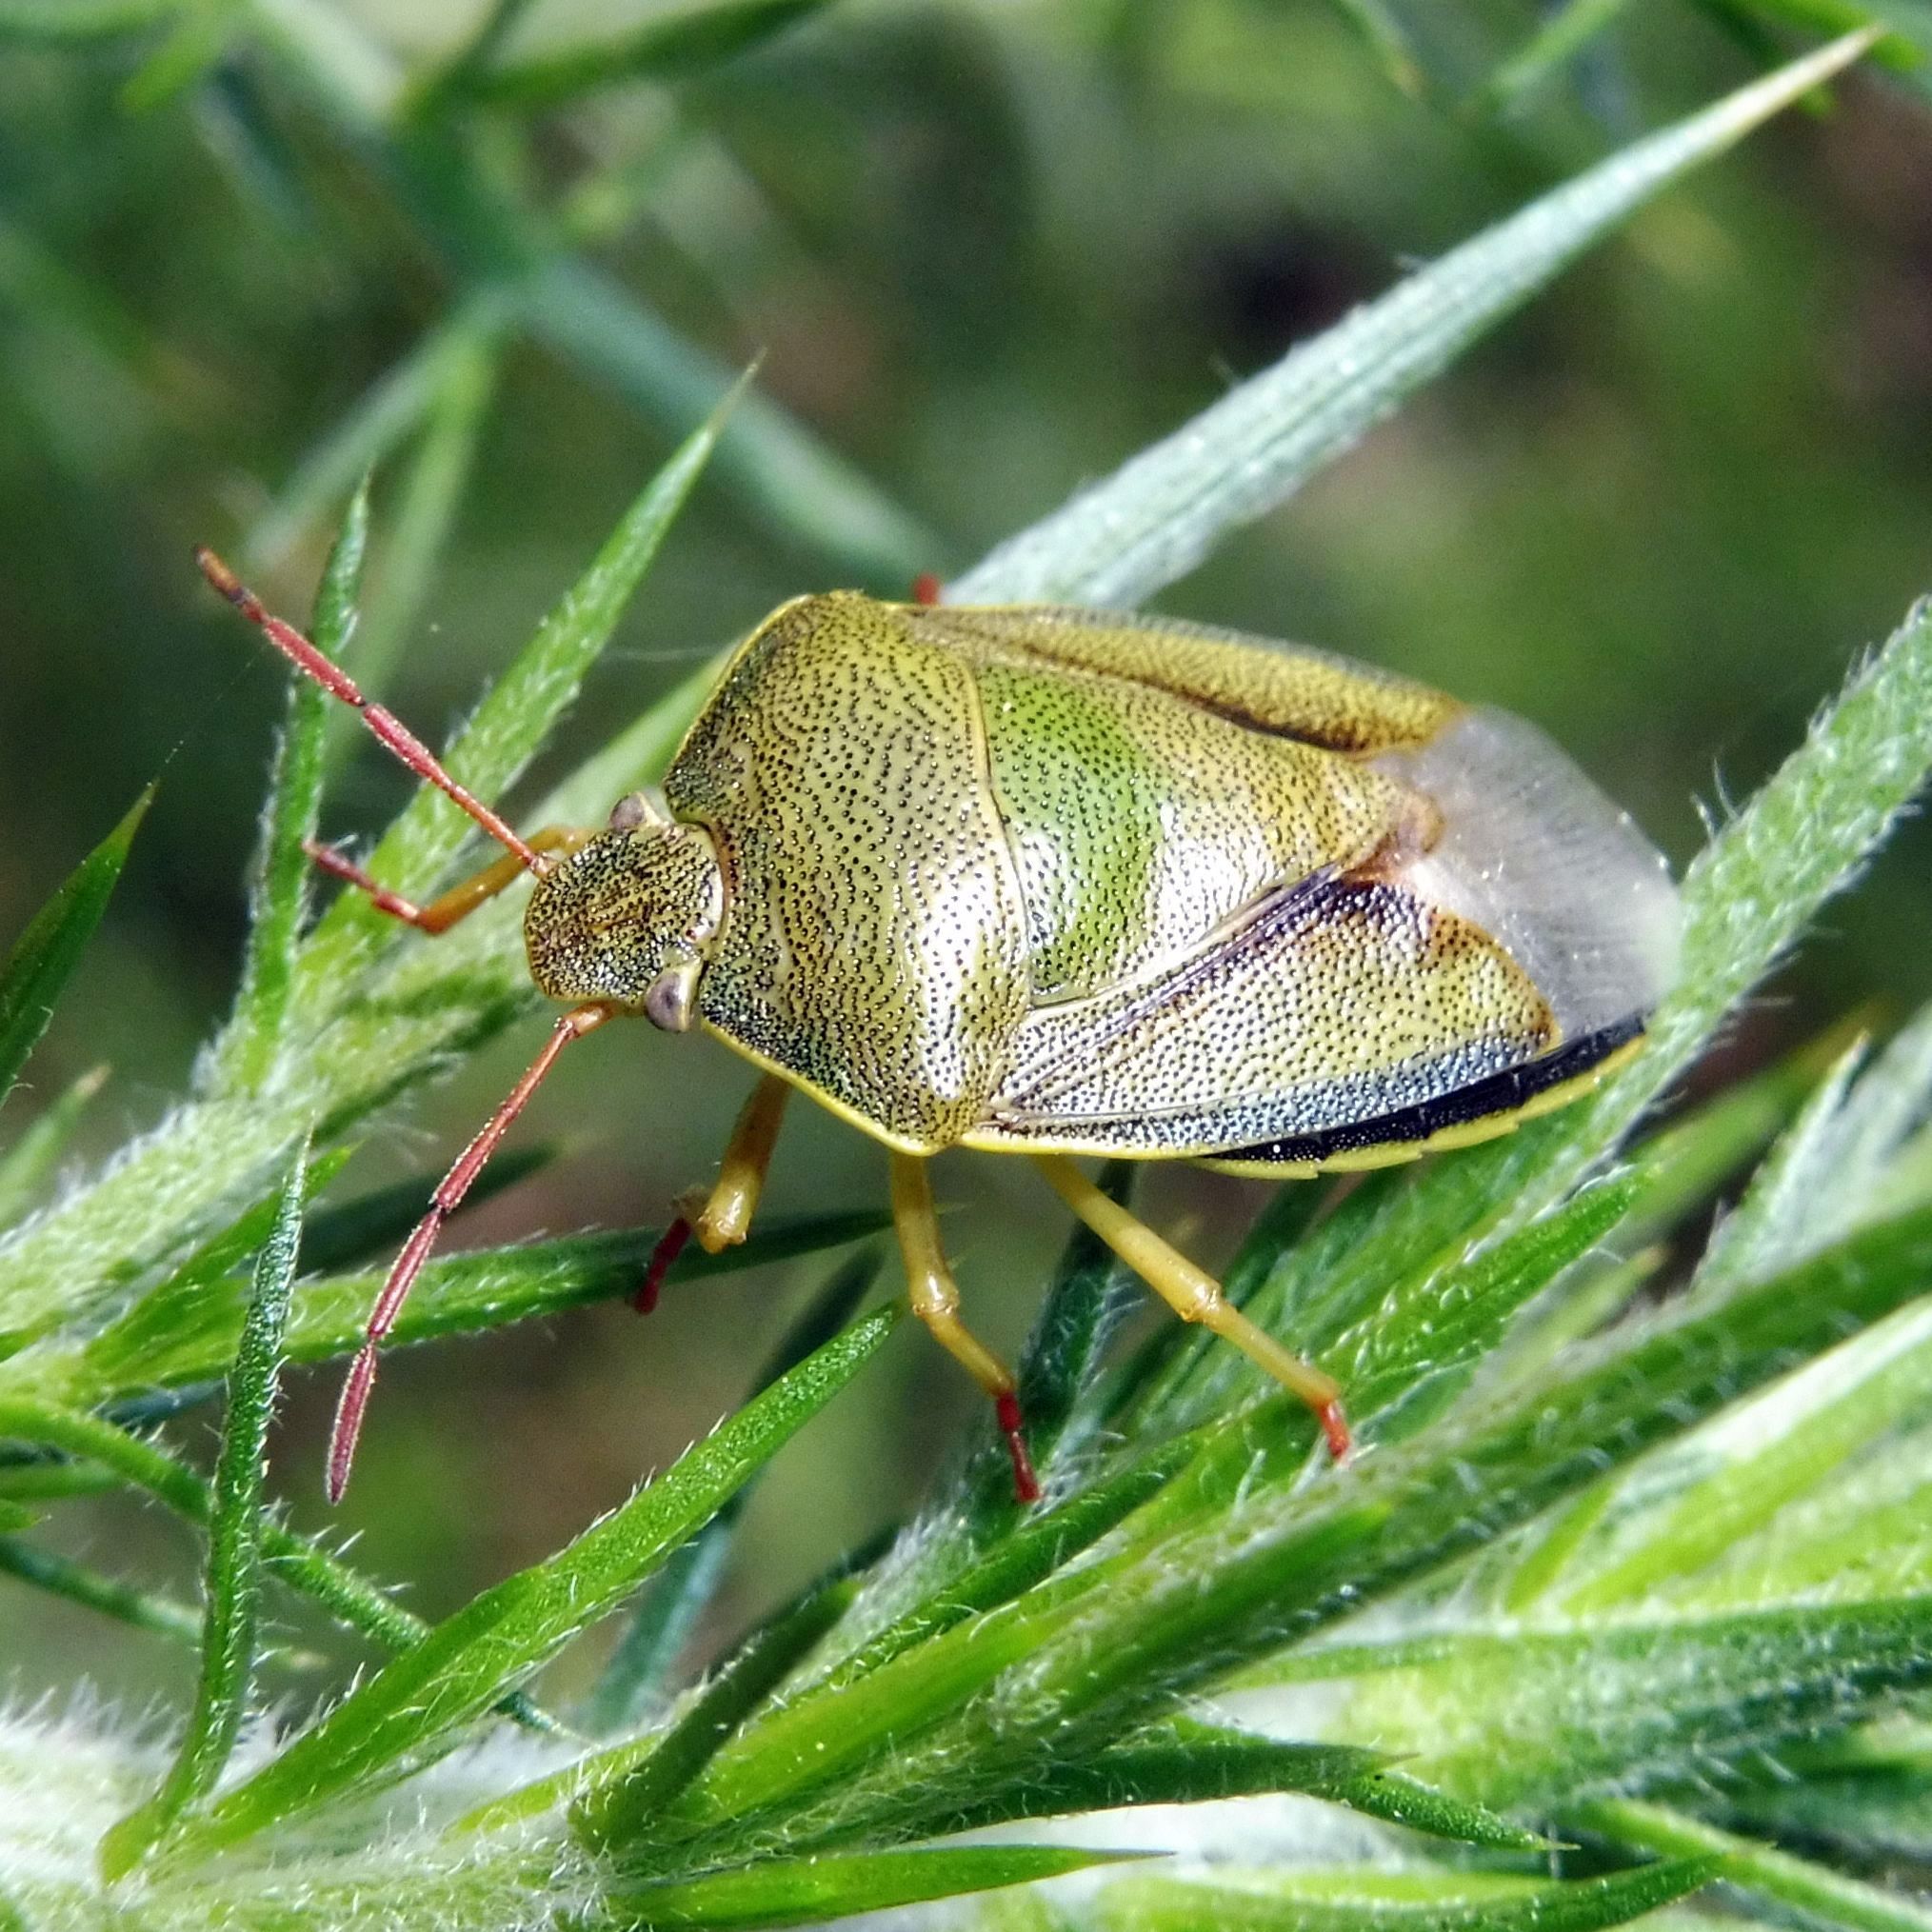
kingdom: Animalia
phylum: Arthropoda
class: Insecta
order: Hemiptera
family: Pentatomidae
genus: Piezodorus
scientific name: Piezodorus lituratus
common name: Stink bug
